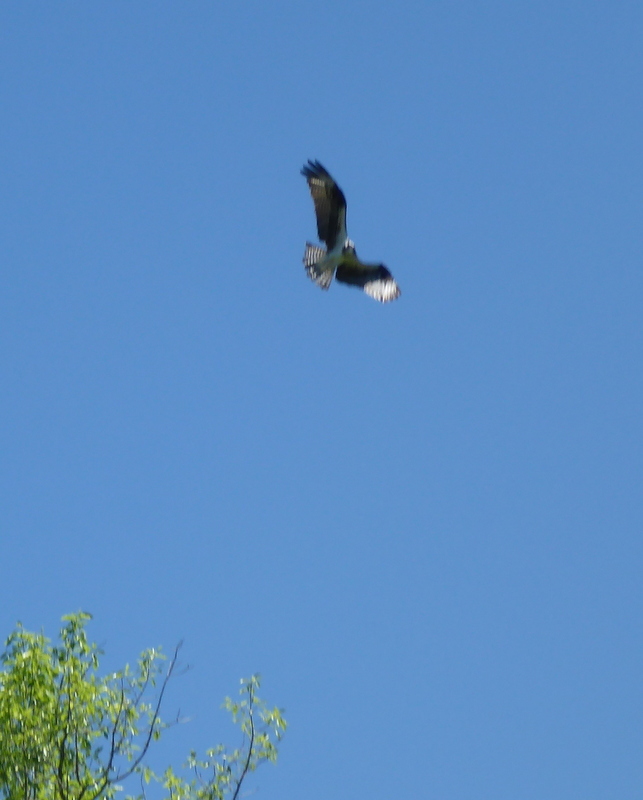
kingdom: Animalia
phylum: Chordata
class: Aves
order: Accipitriformes
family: Pandionidae
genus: Pandion
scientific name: Pandion haliaetus
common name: Osprey
